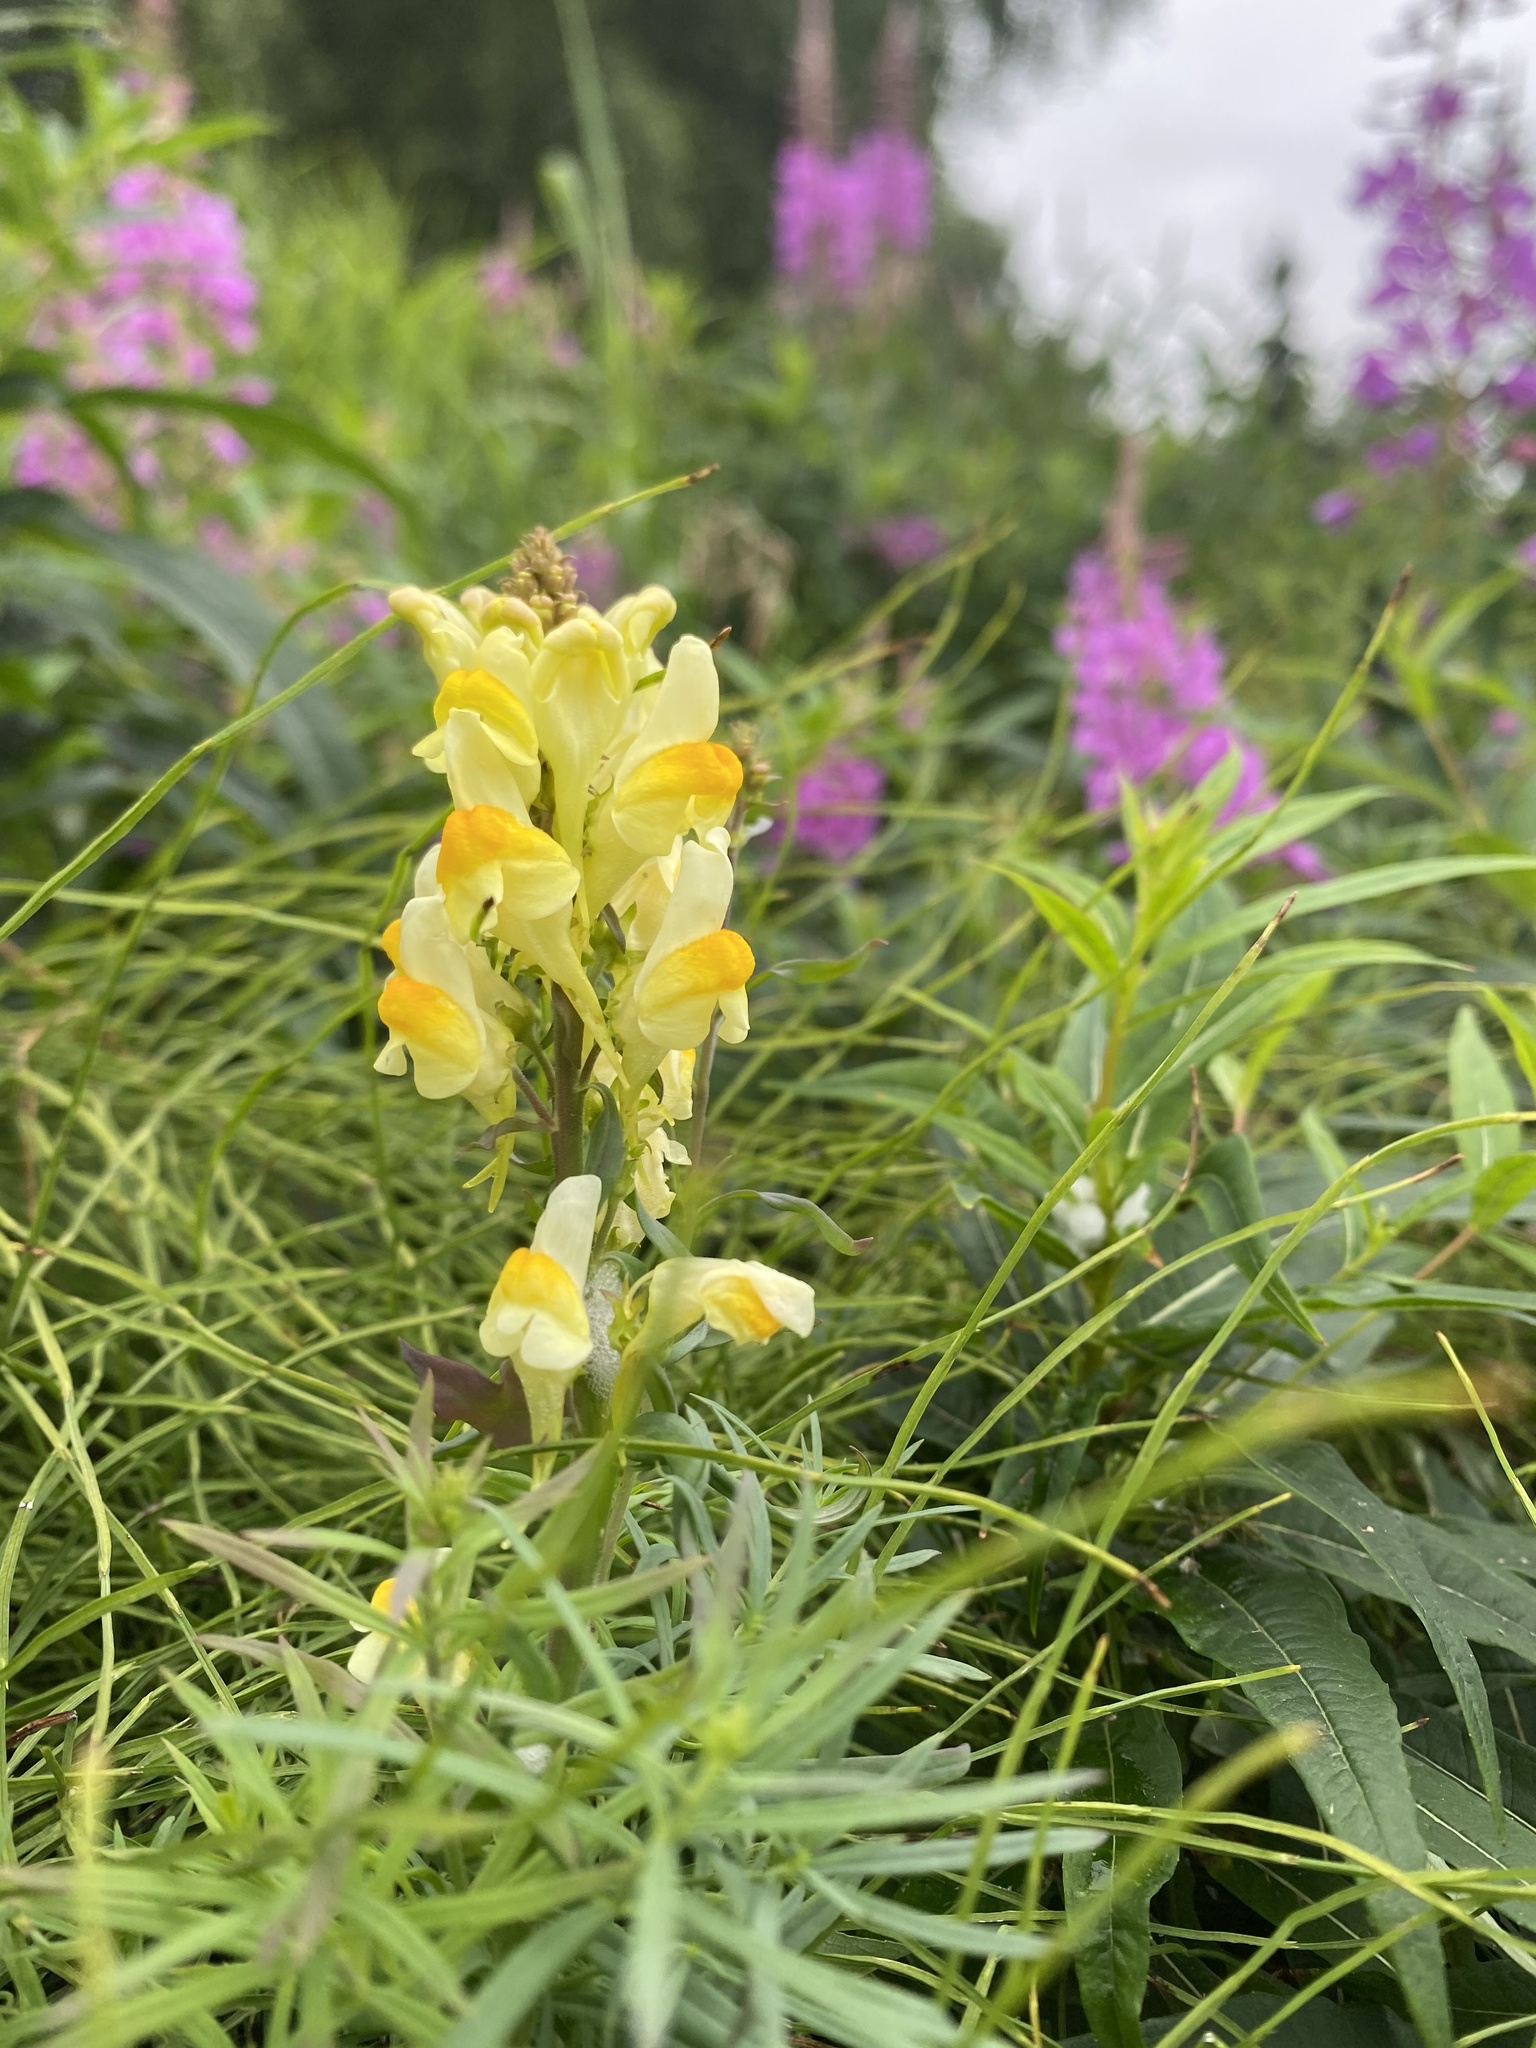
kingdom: Plantae
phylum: Tracheophyta
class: Magnoliopsida
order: Lamiales
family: Plantaginaceae
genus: Linaria
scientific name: Linaria vulgaris
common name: Butter and eggs
